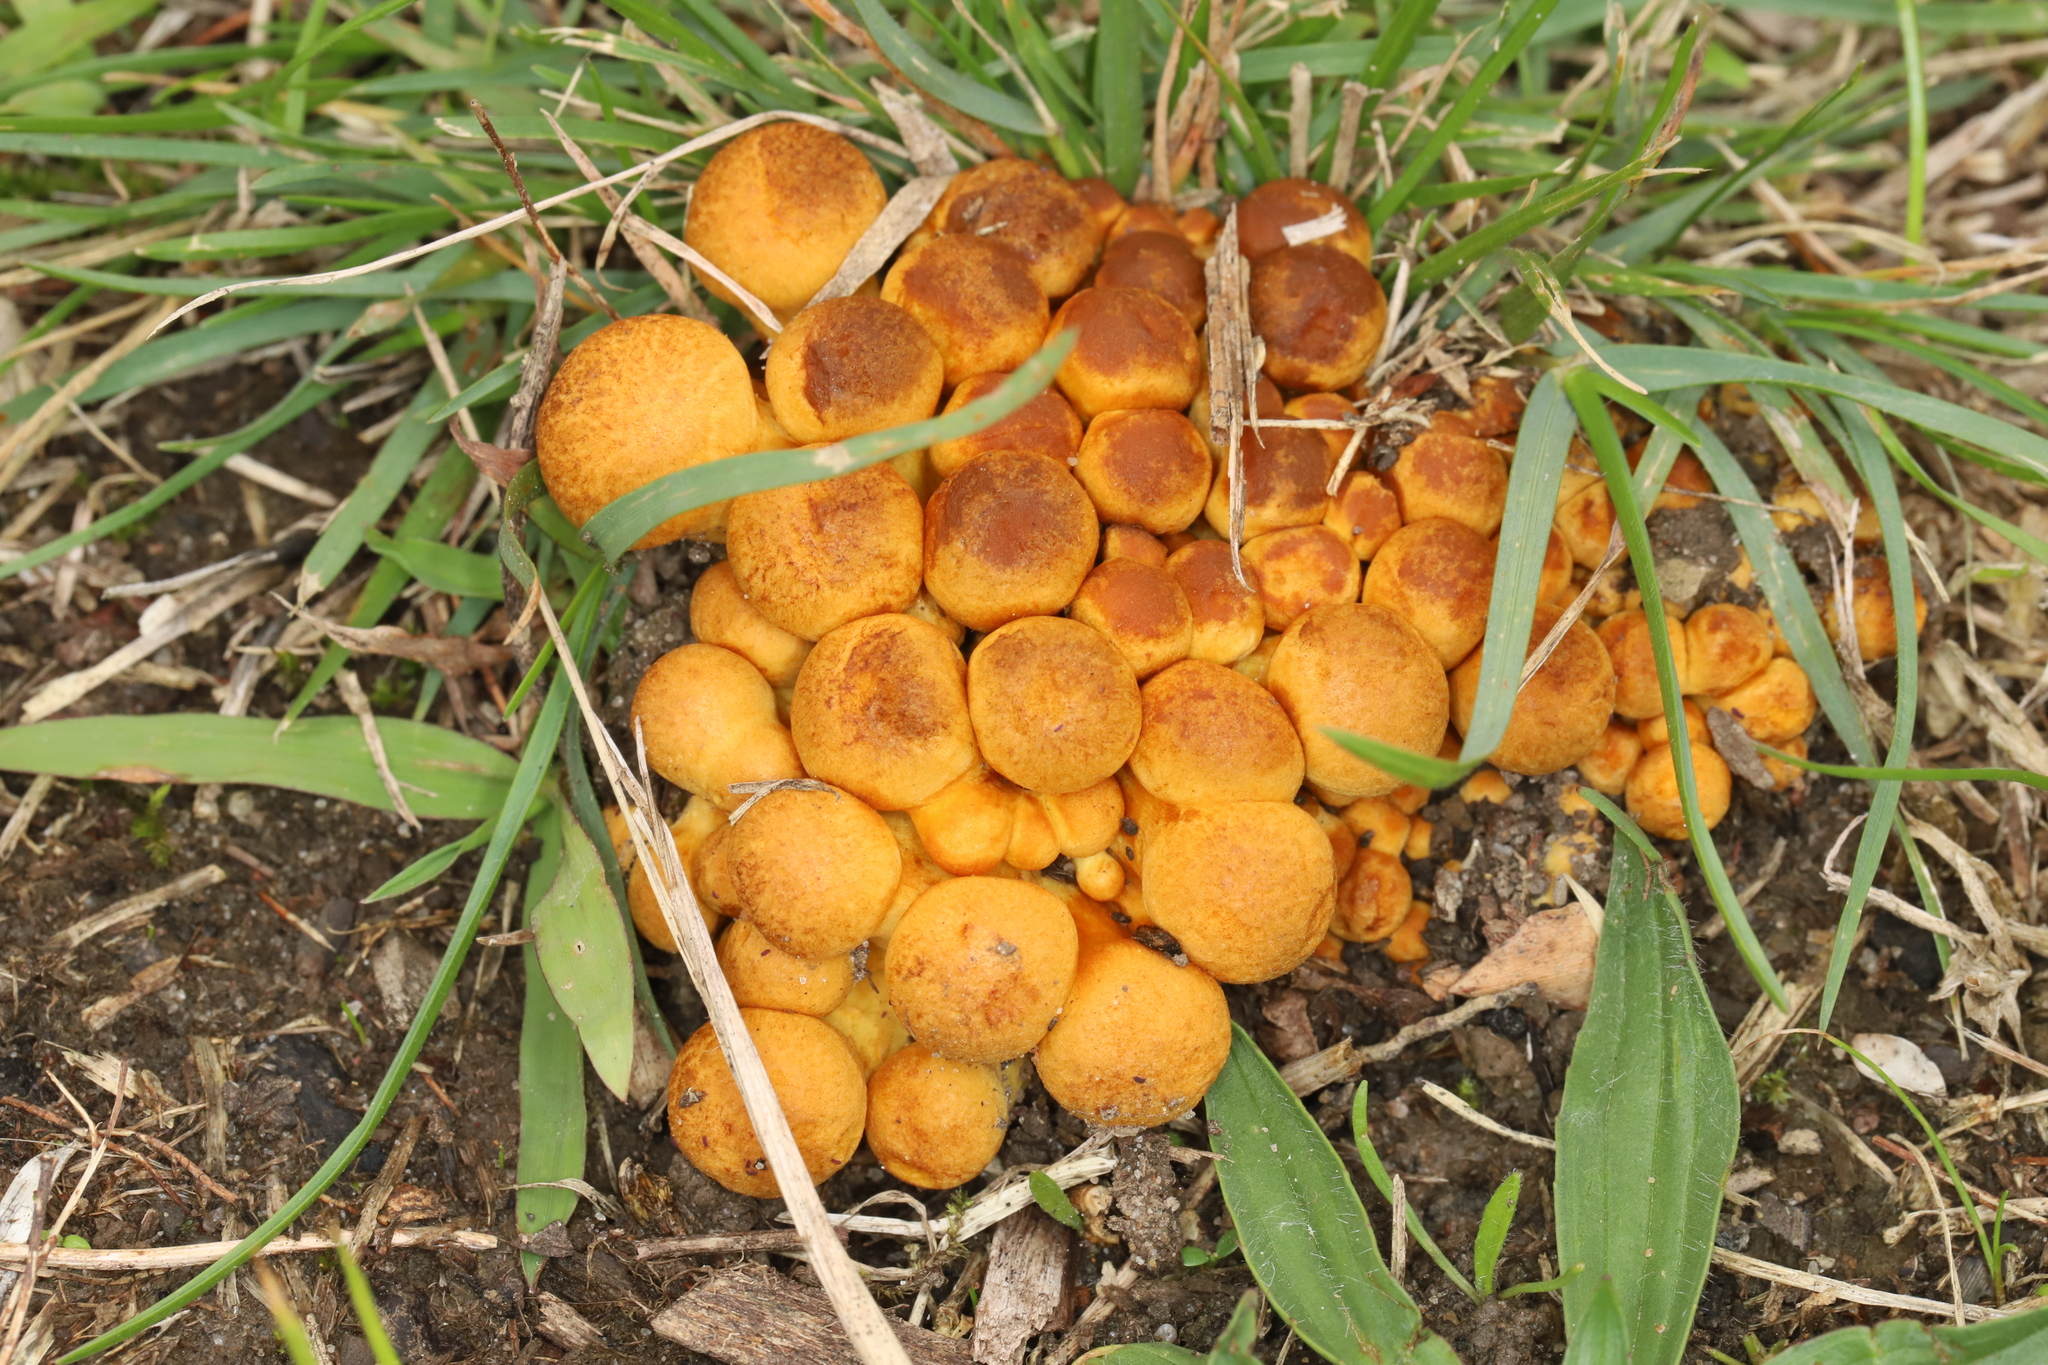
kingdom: Fungi
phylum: Basidiomycota
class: Agaricomycetes
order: Agaricales
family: Hymenogastraceae
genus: Gymnopilus
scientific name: Gymnopilus junonius
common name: Spectacular rustgill
